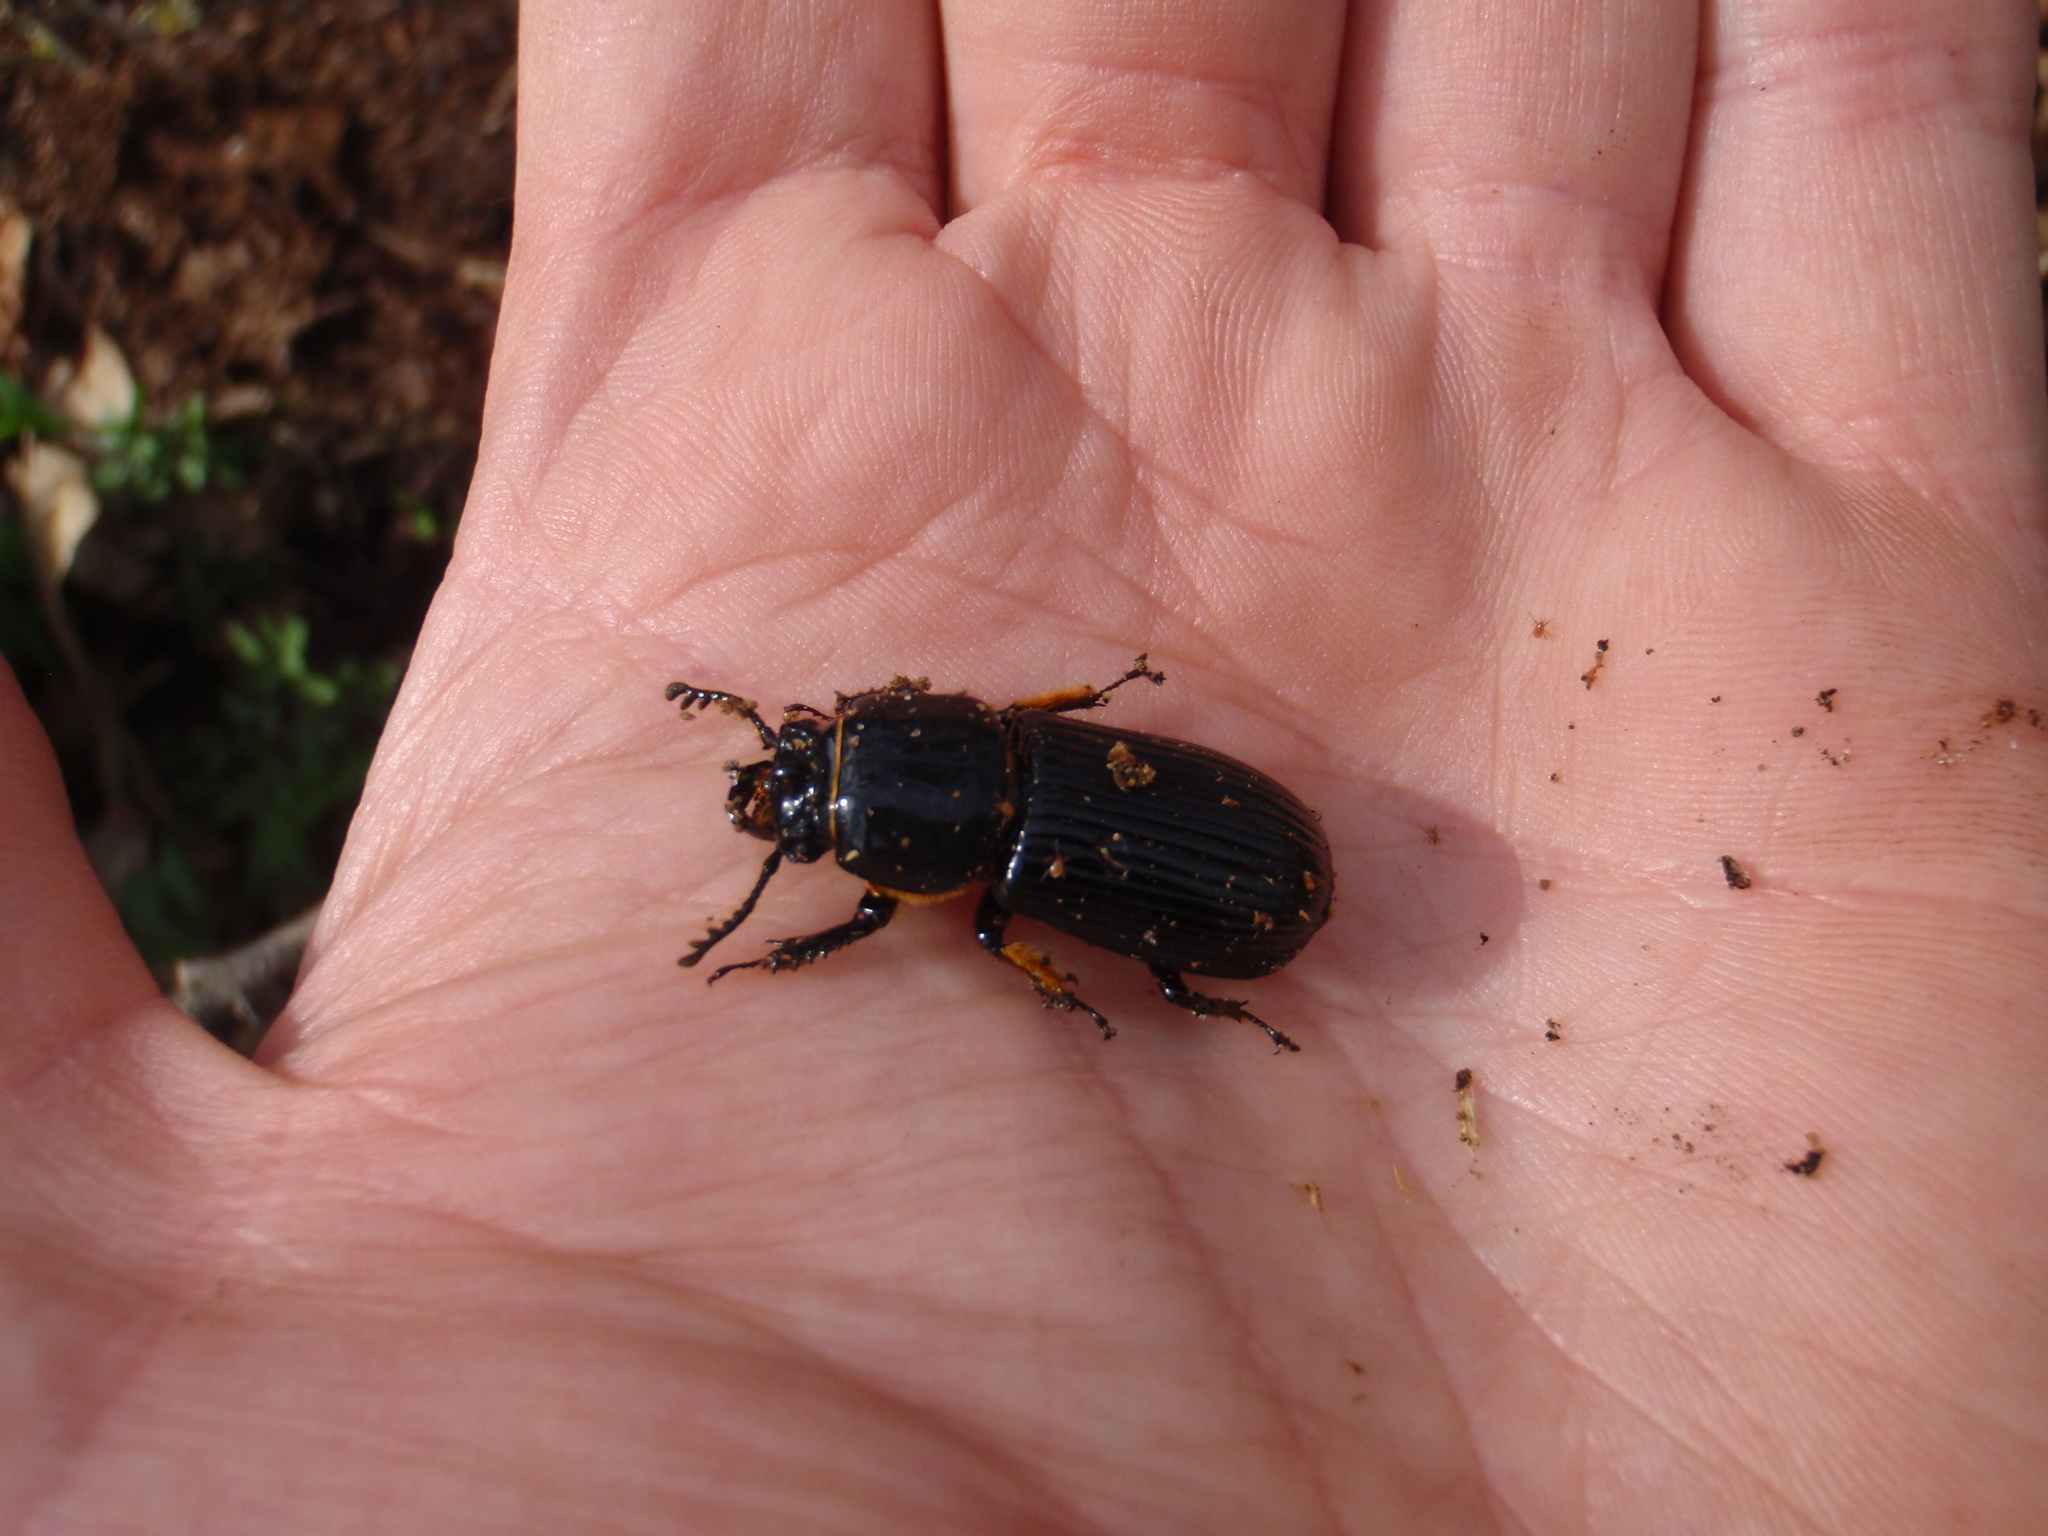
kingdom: Animalia
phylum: Arthropoda
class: Insecta
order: Coleoptera
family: Passalidae
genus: Odontotaenius
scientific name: Odontotaenius disjunctus
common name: Patent leather beetle
